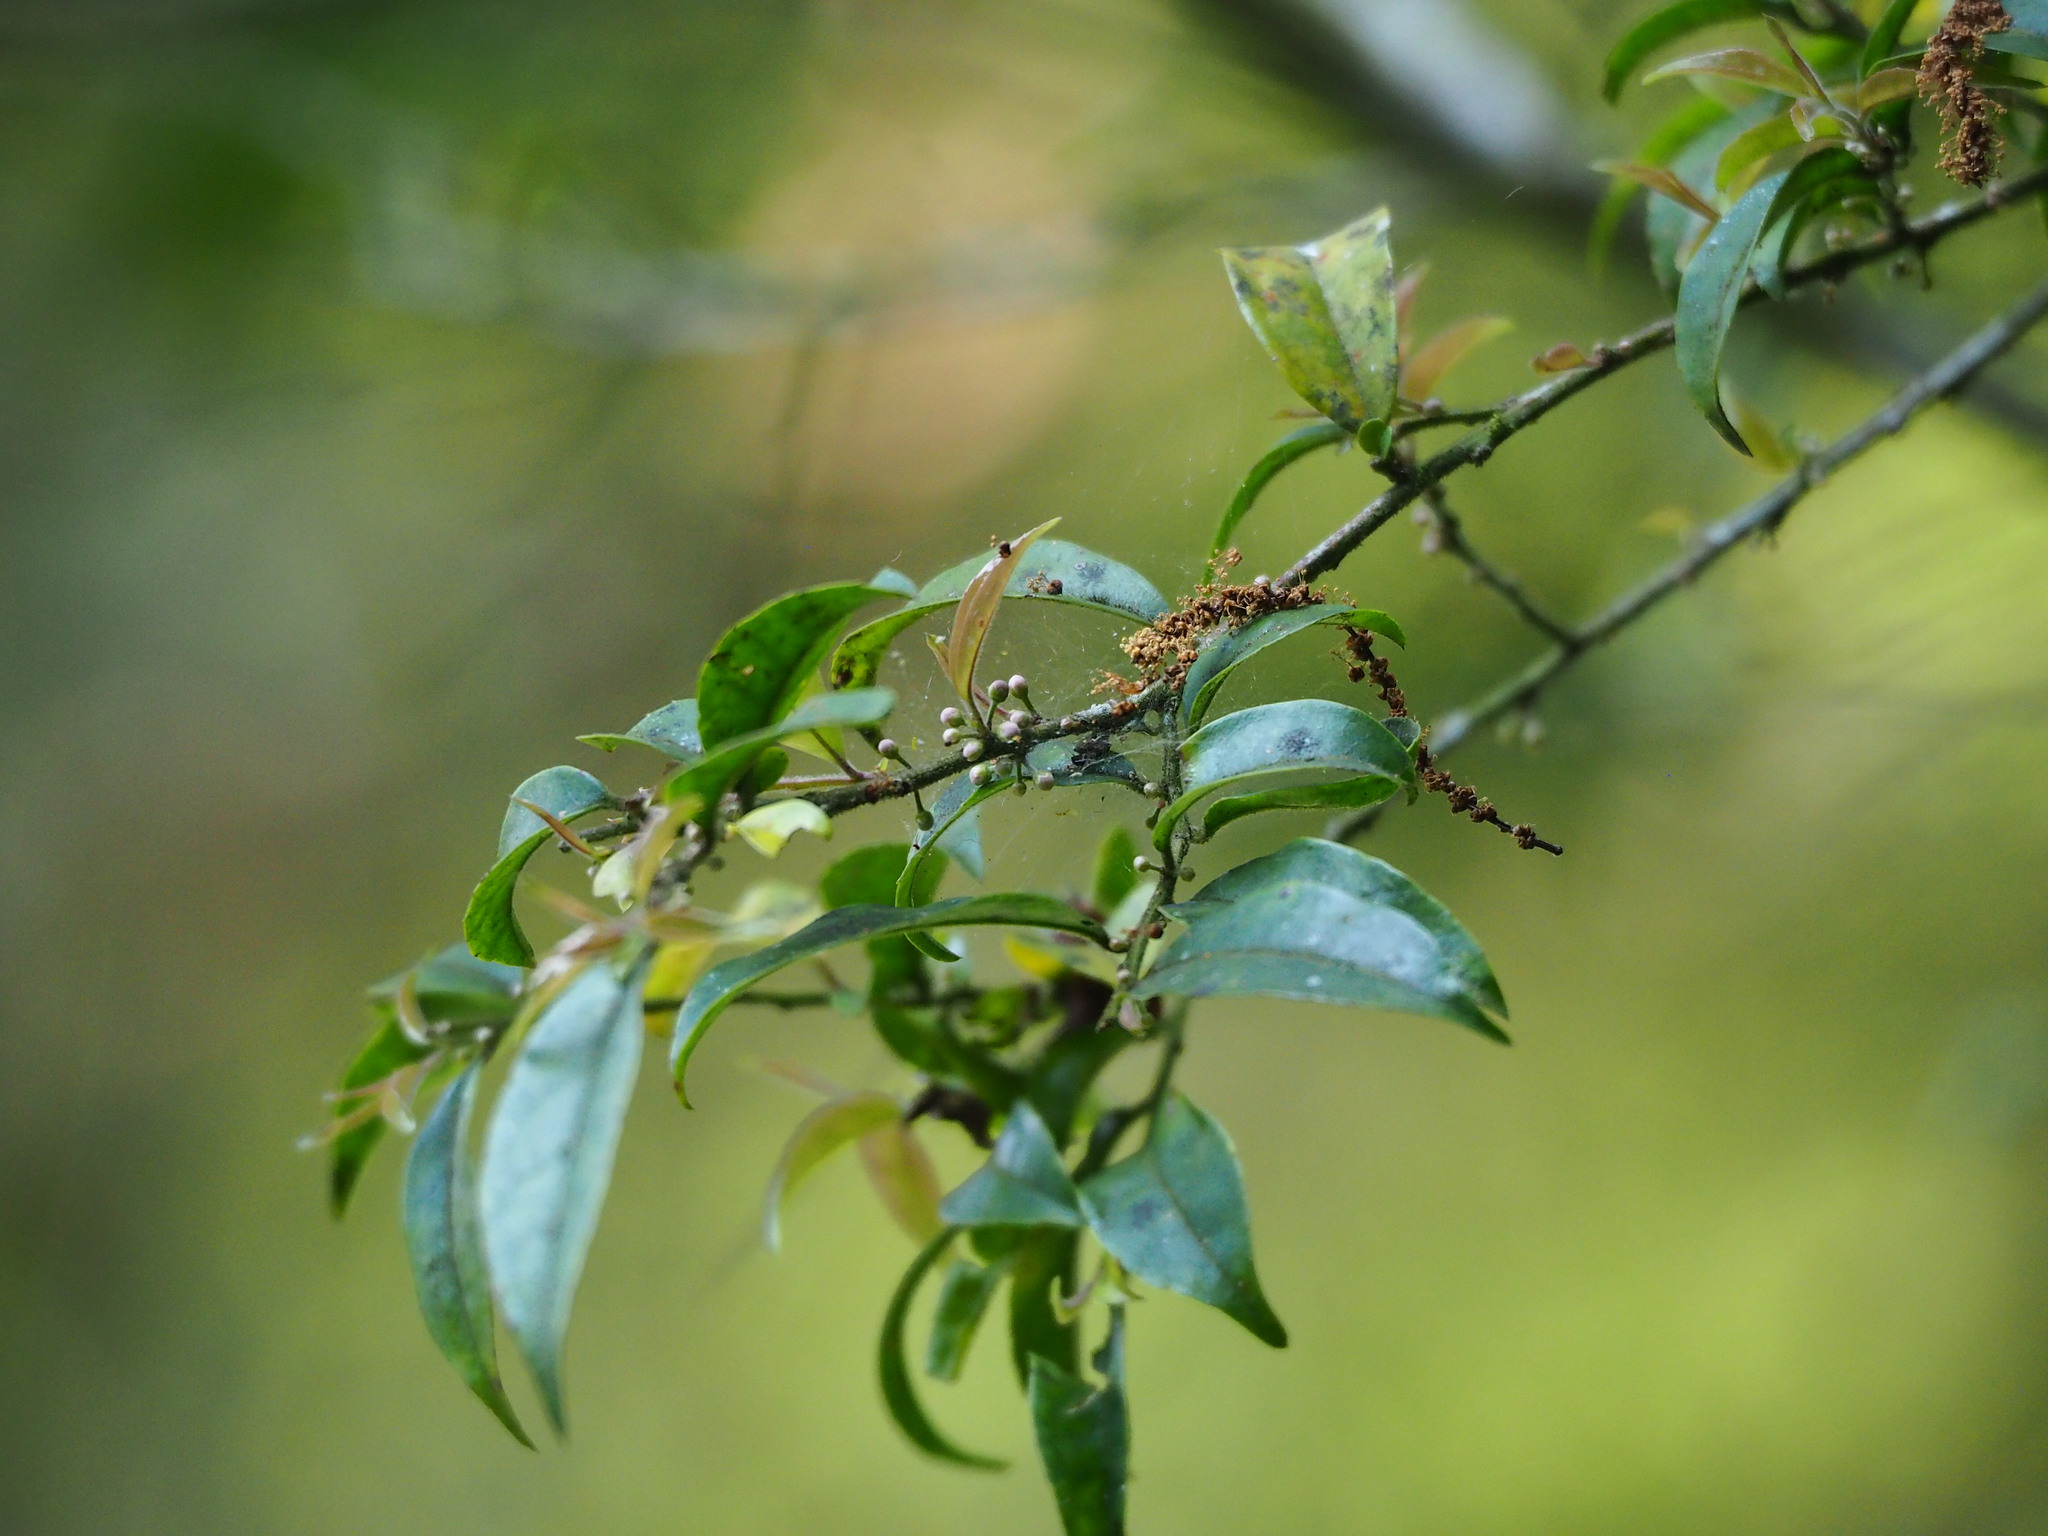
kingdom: Plantae
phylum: Tracheophyta
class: Magnoliopsida
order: Aquifoliales
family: Aquifoliaceae
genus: Ilex
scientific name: Ilex pubescens
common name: Pubescent holly
